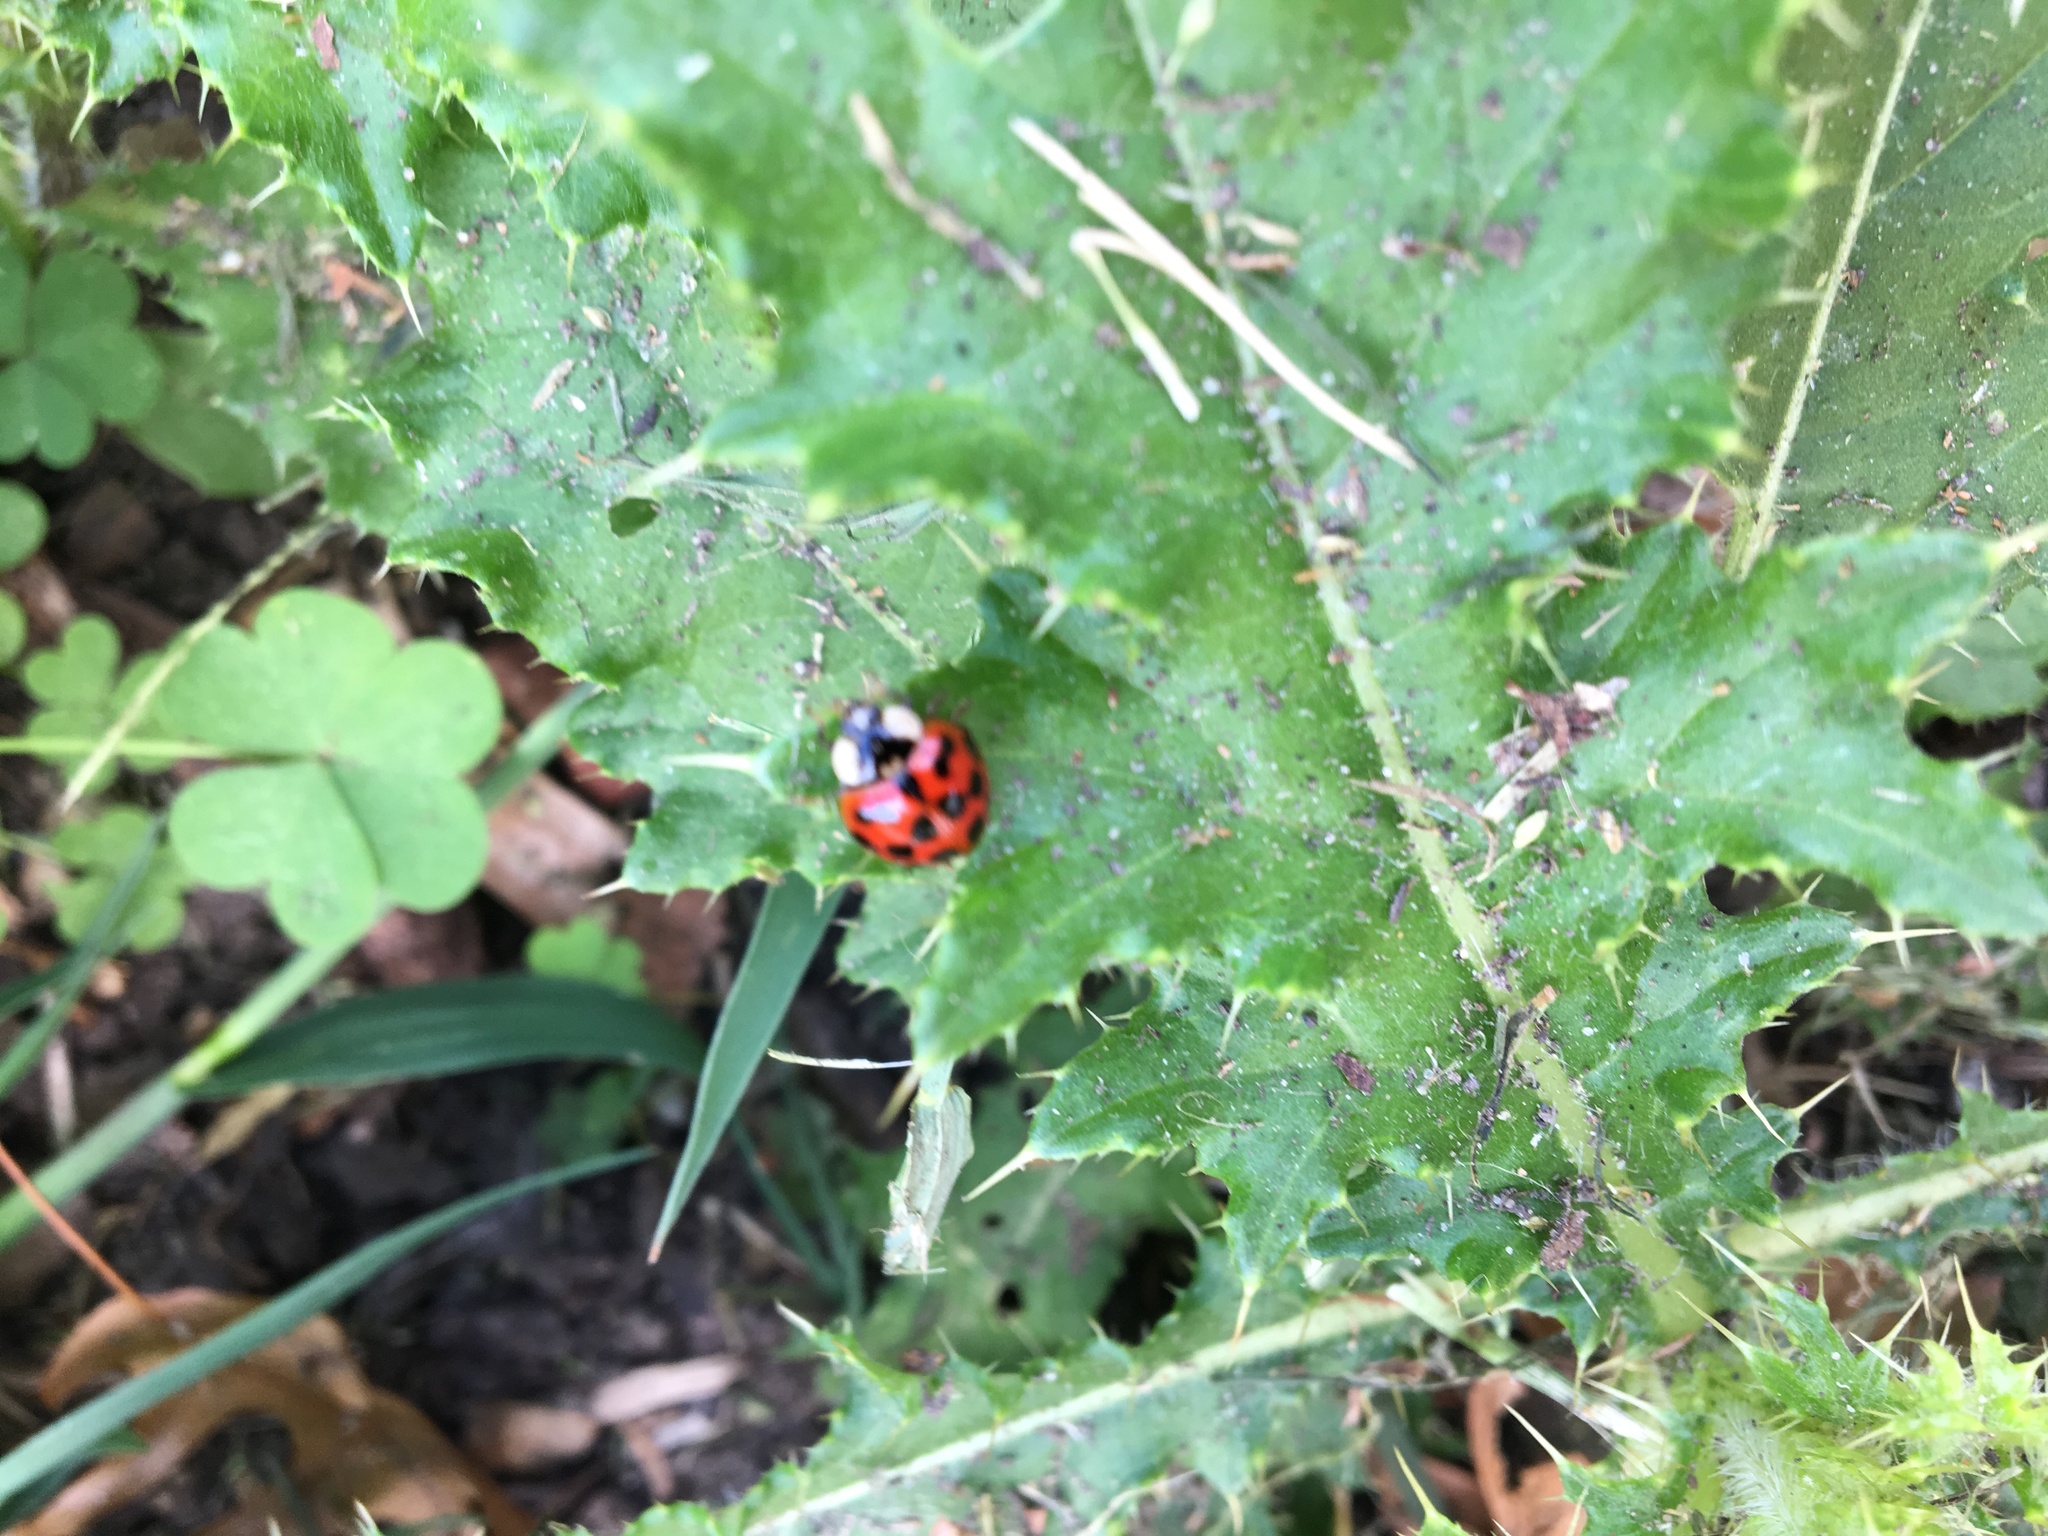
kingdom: Animalia
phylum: Arthropoda
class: Insecta
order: Coleoptera
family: Coccinellidae
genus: Harmonia
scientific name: Harmonia axyridis
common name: Harlequin ladybird
